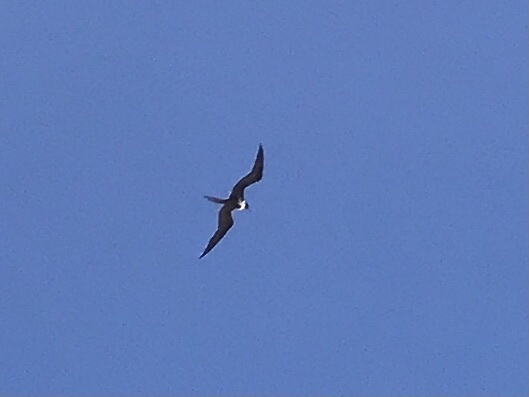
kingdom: Animalia
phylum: Chordata
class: Aves
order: Suliformes
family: Fregatidae
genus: Fregata
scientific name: Fregata magnificens
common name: Magnificent frigatebird
